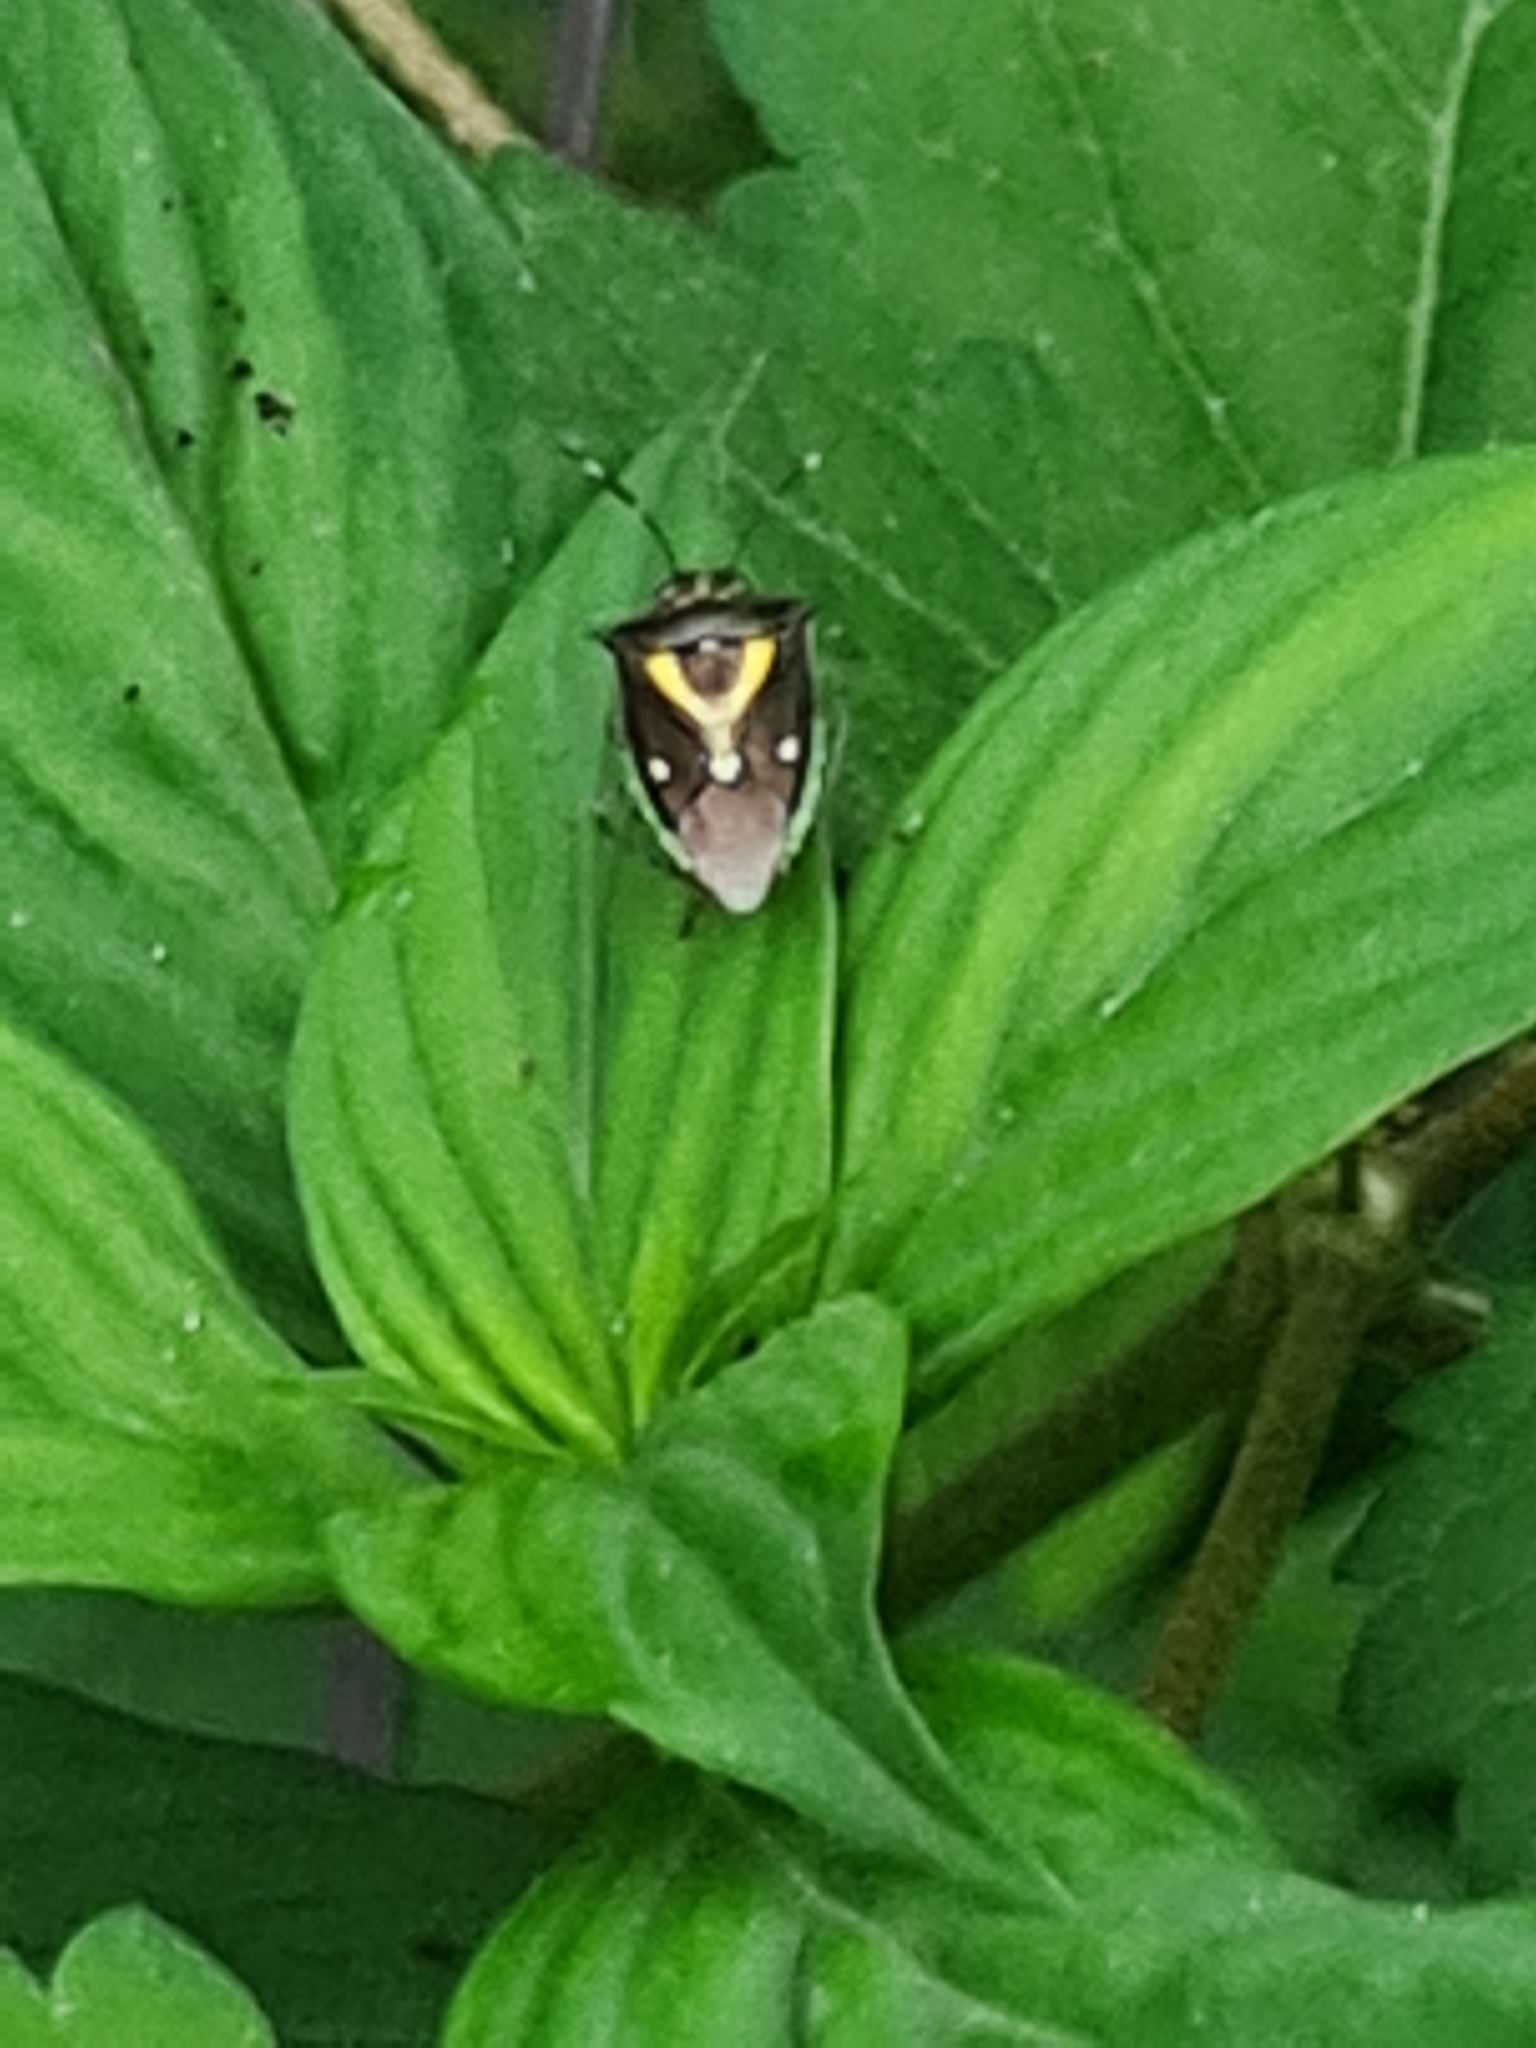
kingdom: Animalia
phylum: Arthropoda
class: Insecta
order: Hemiptera
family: Pentatomidae
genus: Mormidea
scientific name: Mormidea ypsilon
